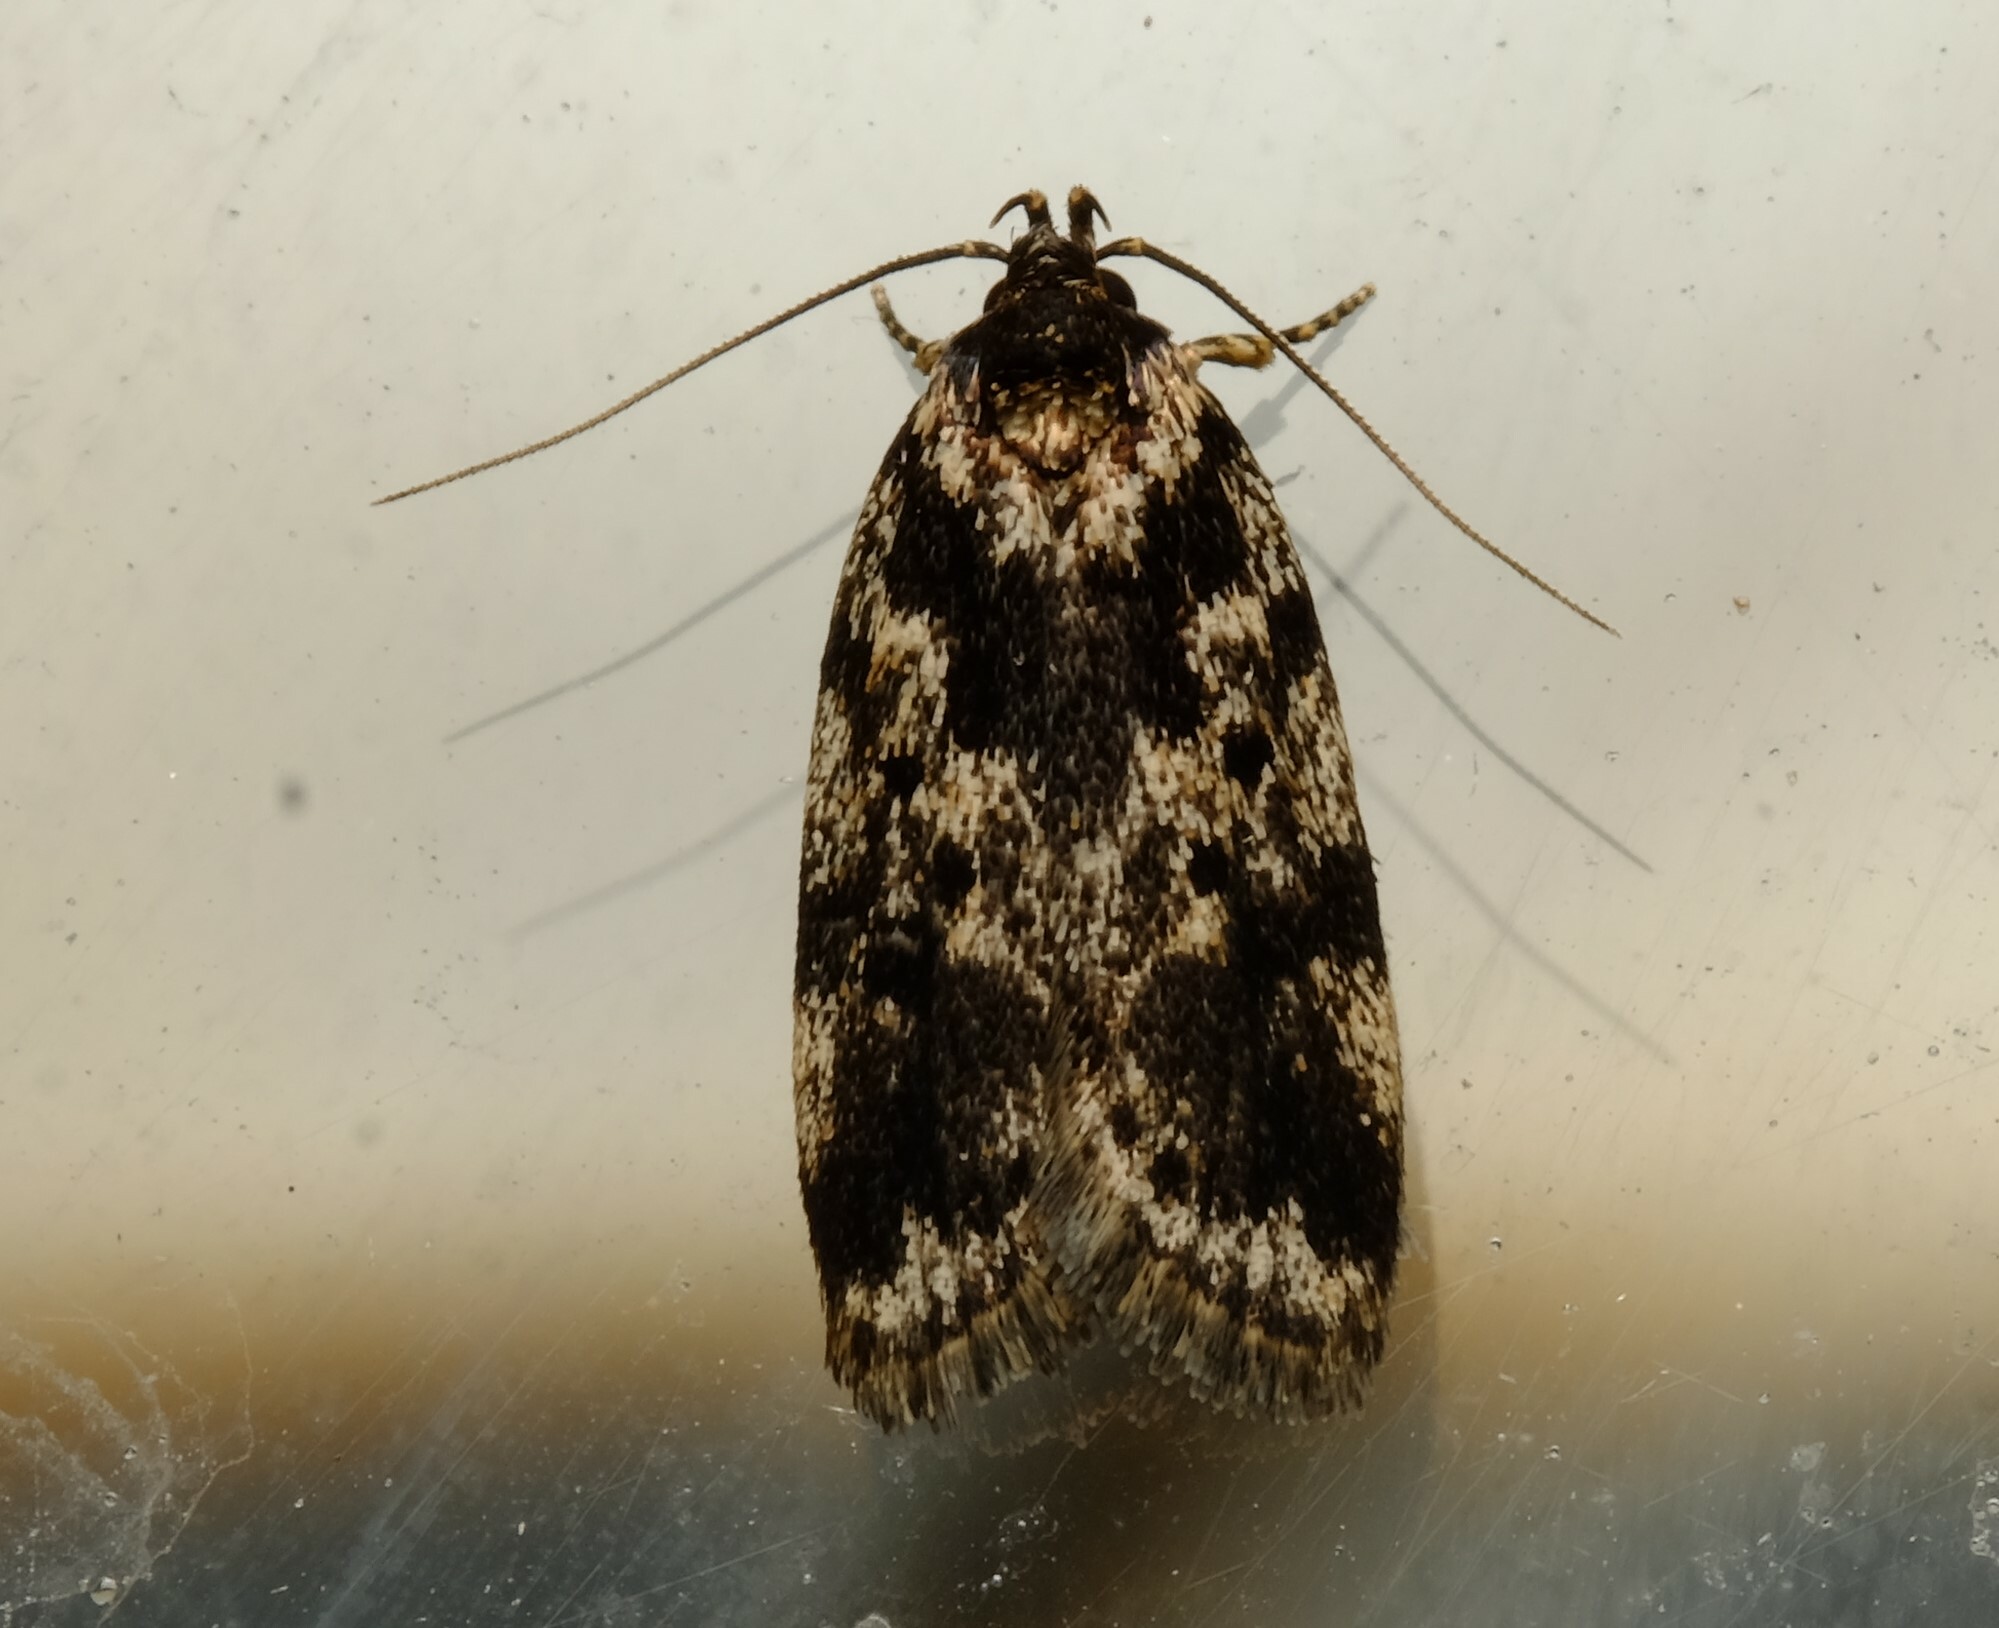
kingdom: Animalia
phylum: Arthropoda
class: Insecta
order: Lepidoptera
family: Oecophoridae
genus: Barea
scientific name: Barea atmophora
